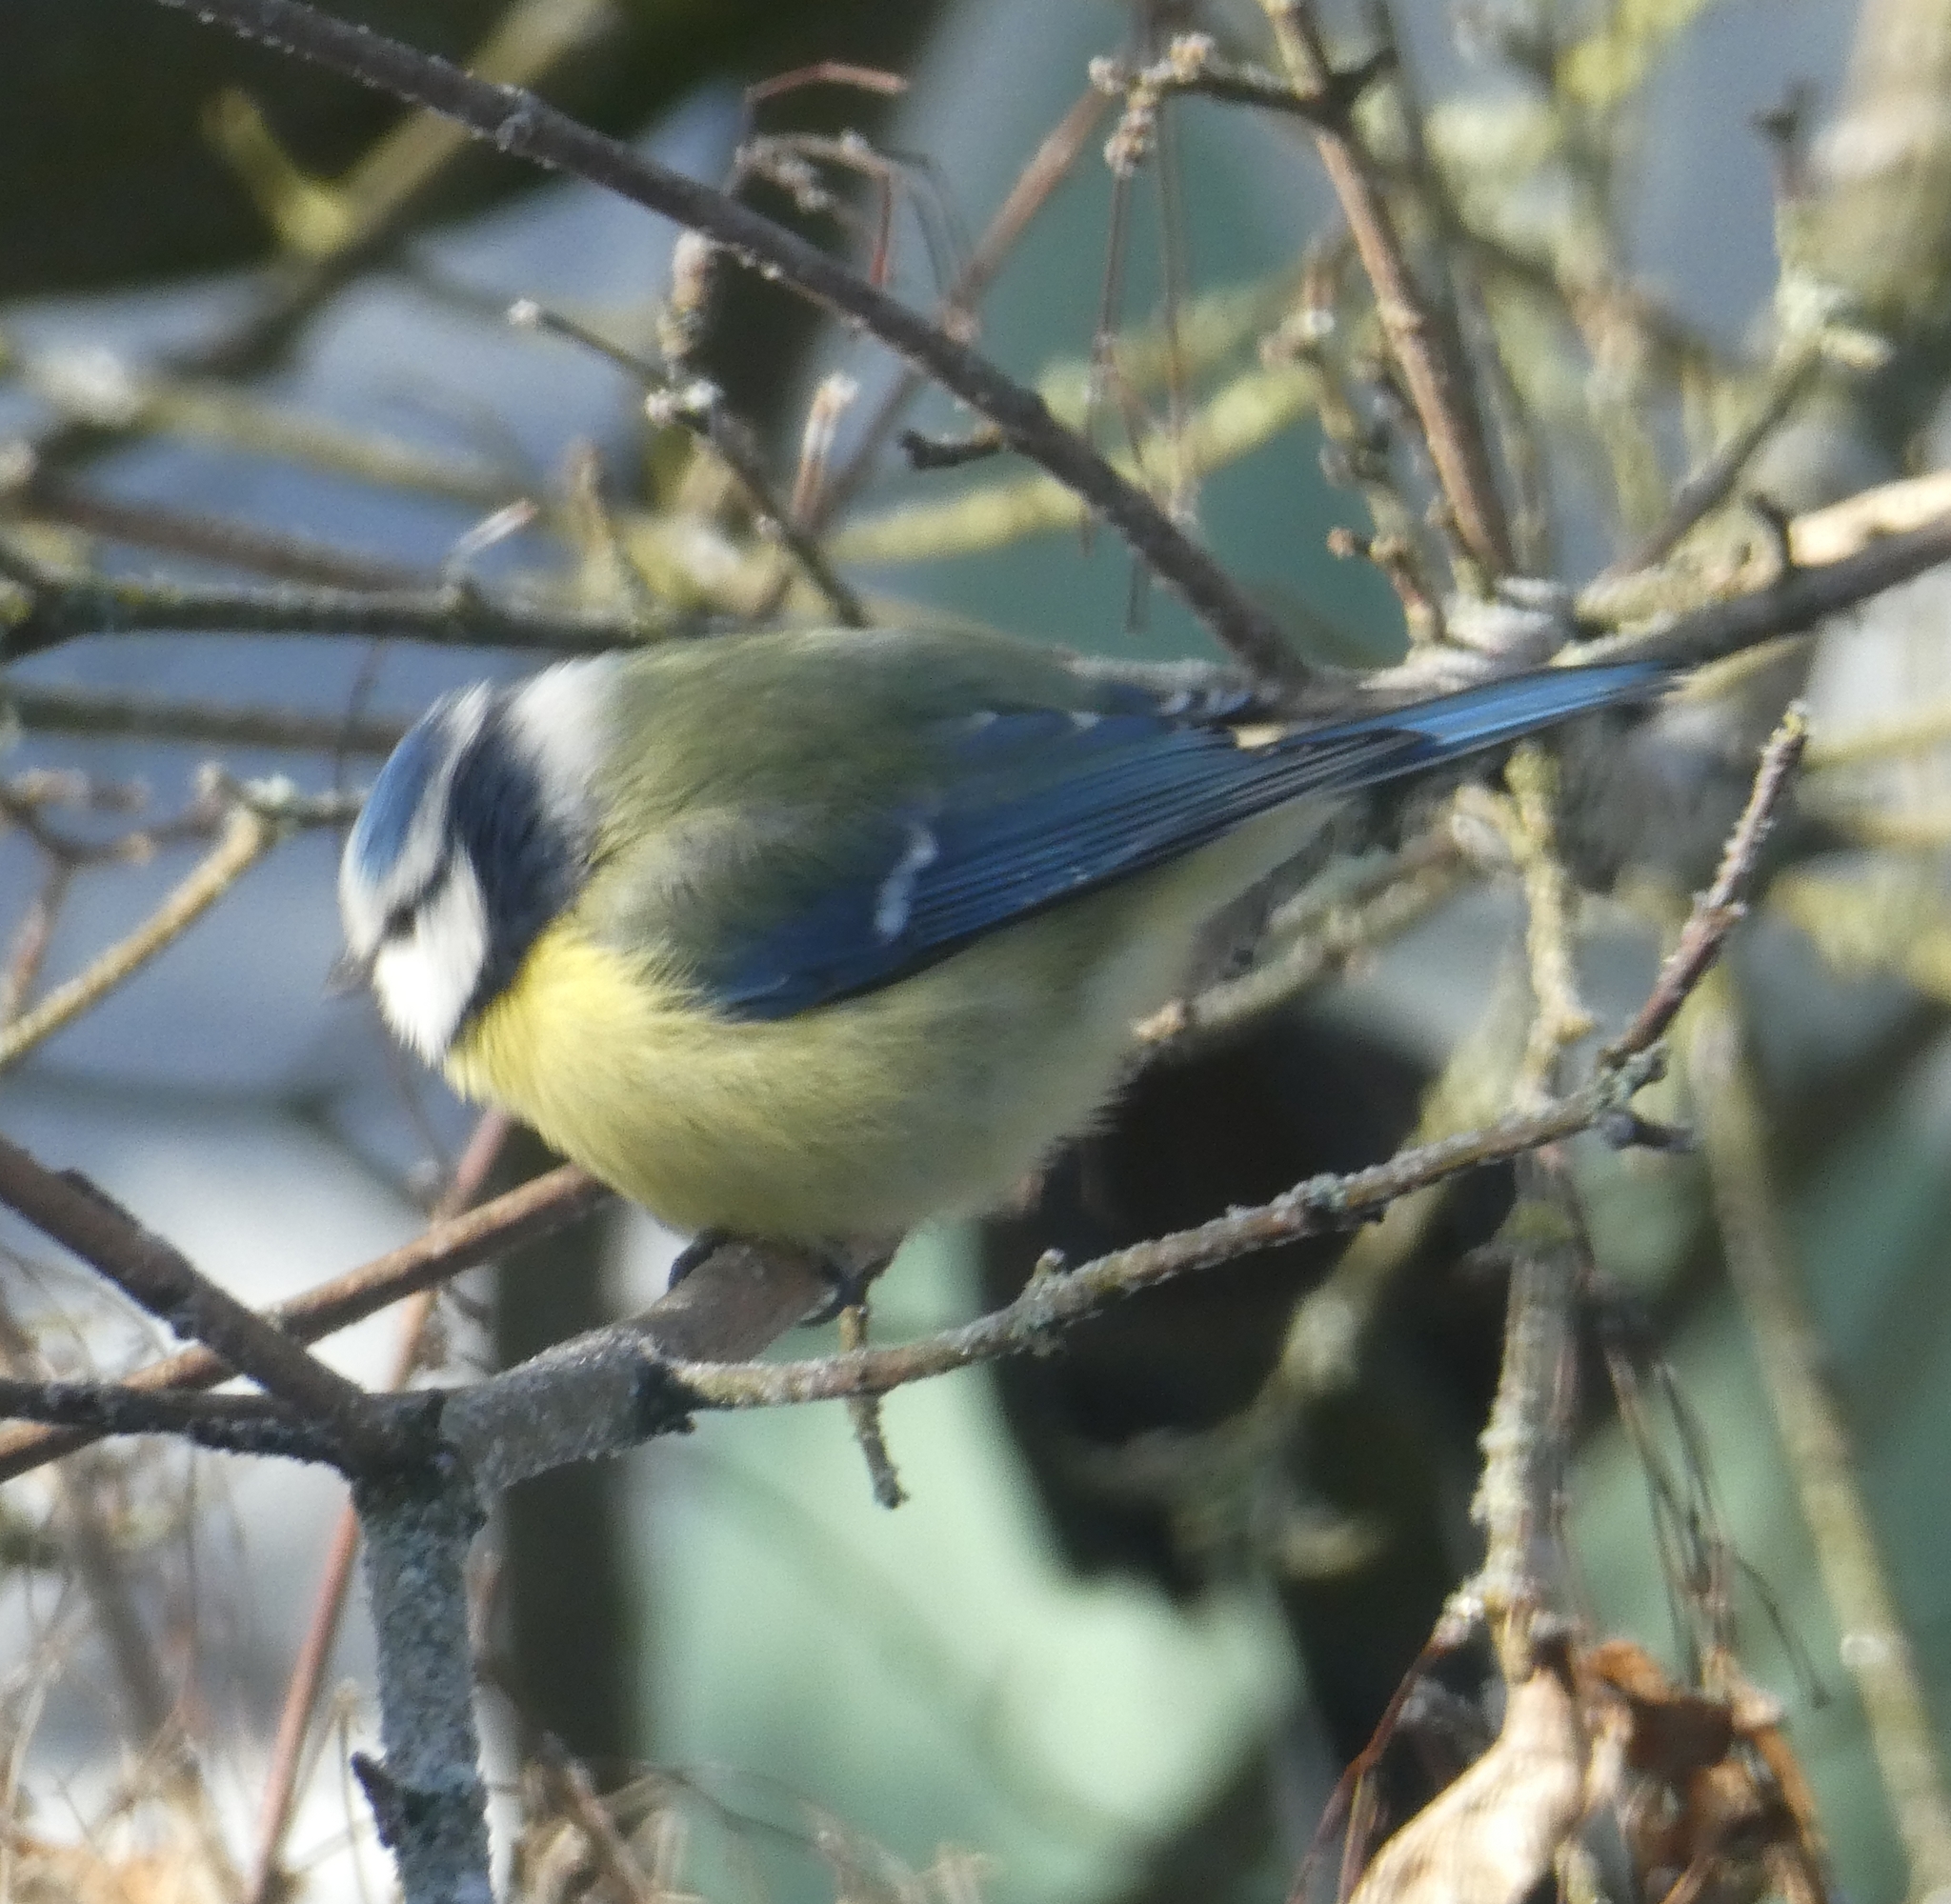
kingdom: Animalia
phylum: Chordata
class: Aves
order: Passeriformes
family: Paridae
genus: Cyanistes
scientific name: Cyanistes caeruleus
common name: Eurasian blue tit
